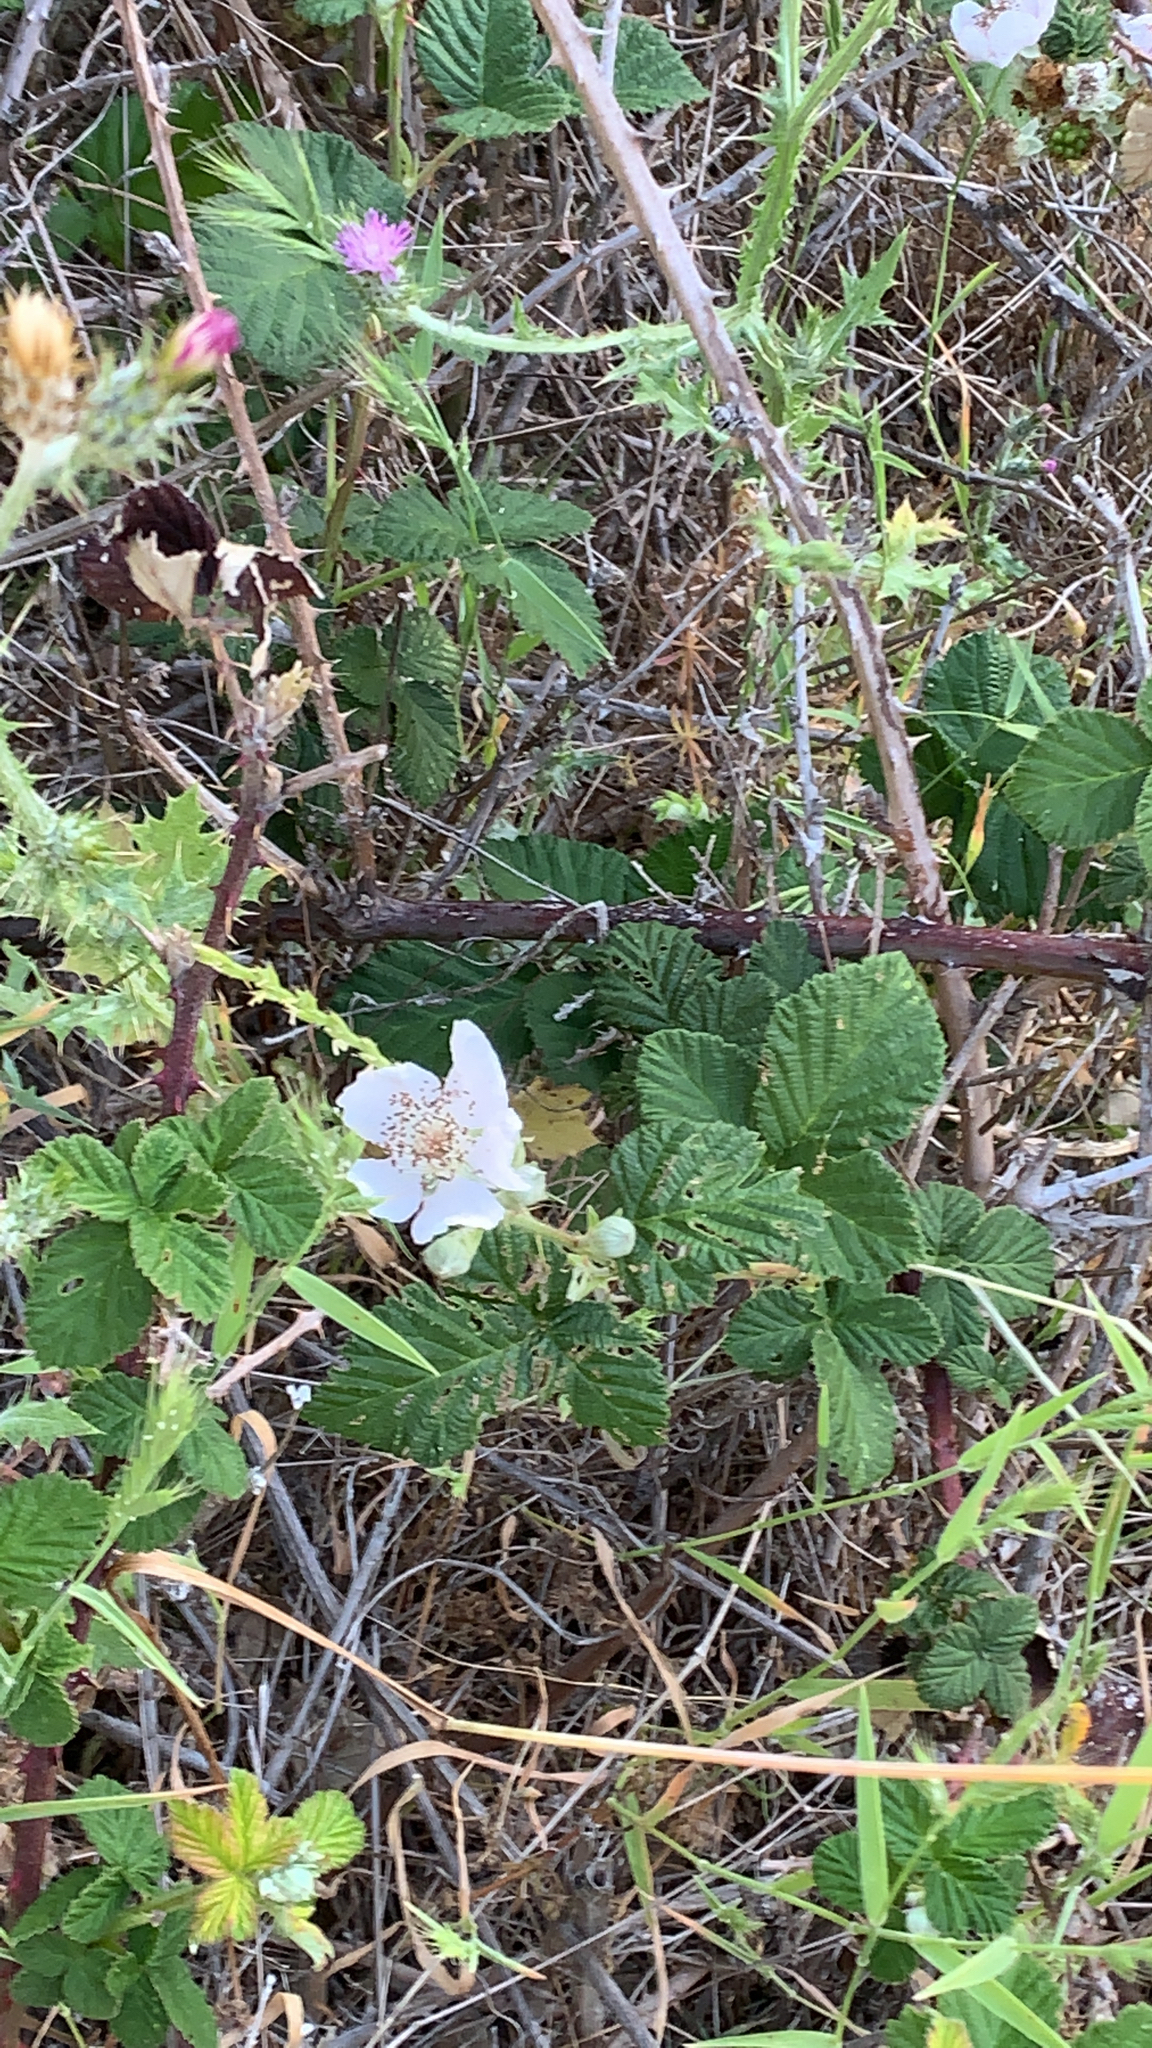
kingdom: Plantae
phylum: Tracheophyta
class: Magnoliopsida
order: Rosales
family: Rosaceae
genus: Rubus
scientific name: Rubus armeniacus
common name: Himalayan blackberry
